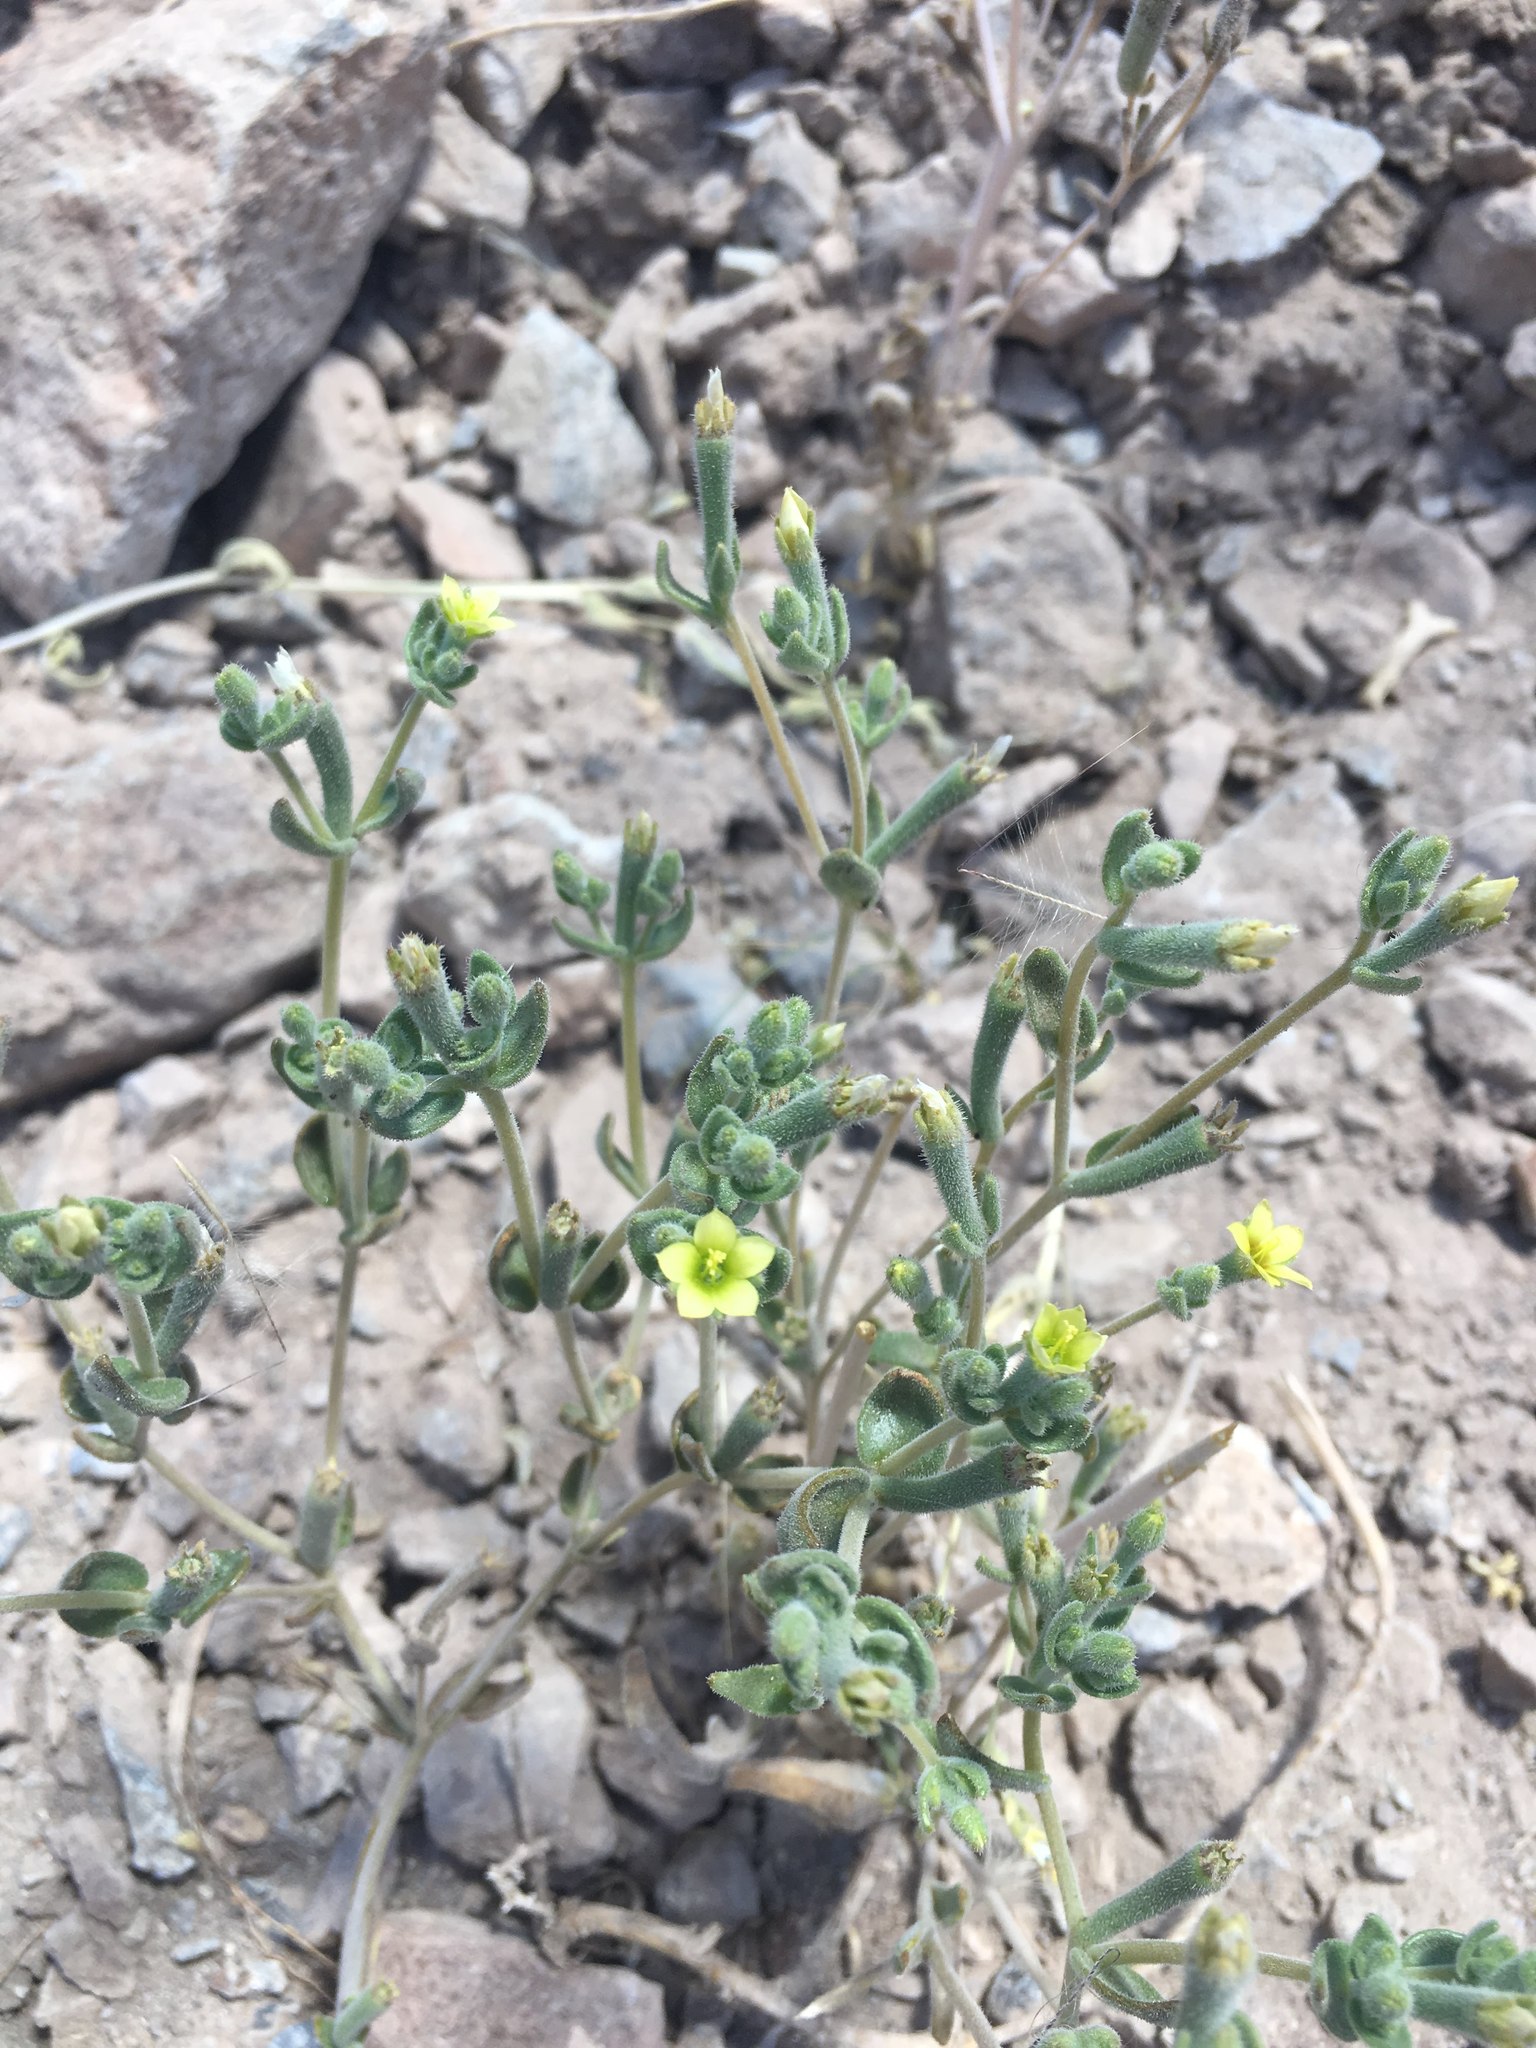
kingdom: Plantae
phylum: Tracheophyta
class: Magnoliopsida
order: Cornales
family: Loasaceae
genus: Mentzelia
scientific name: Mentzelia solieri
